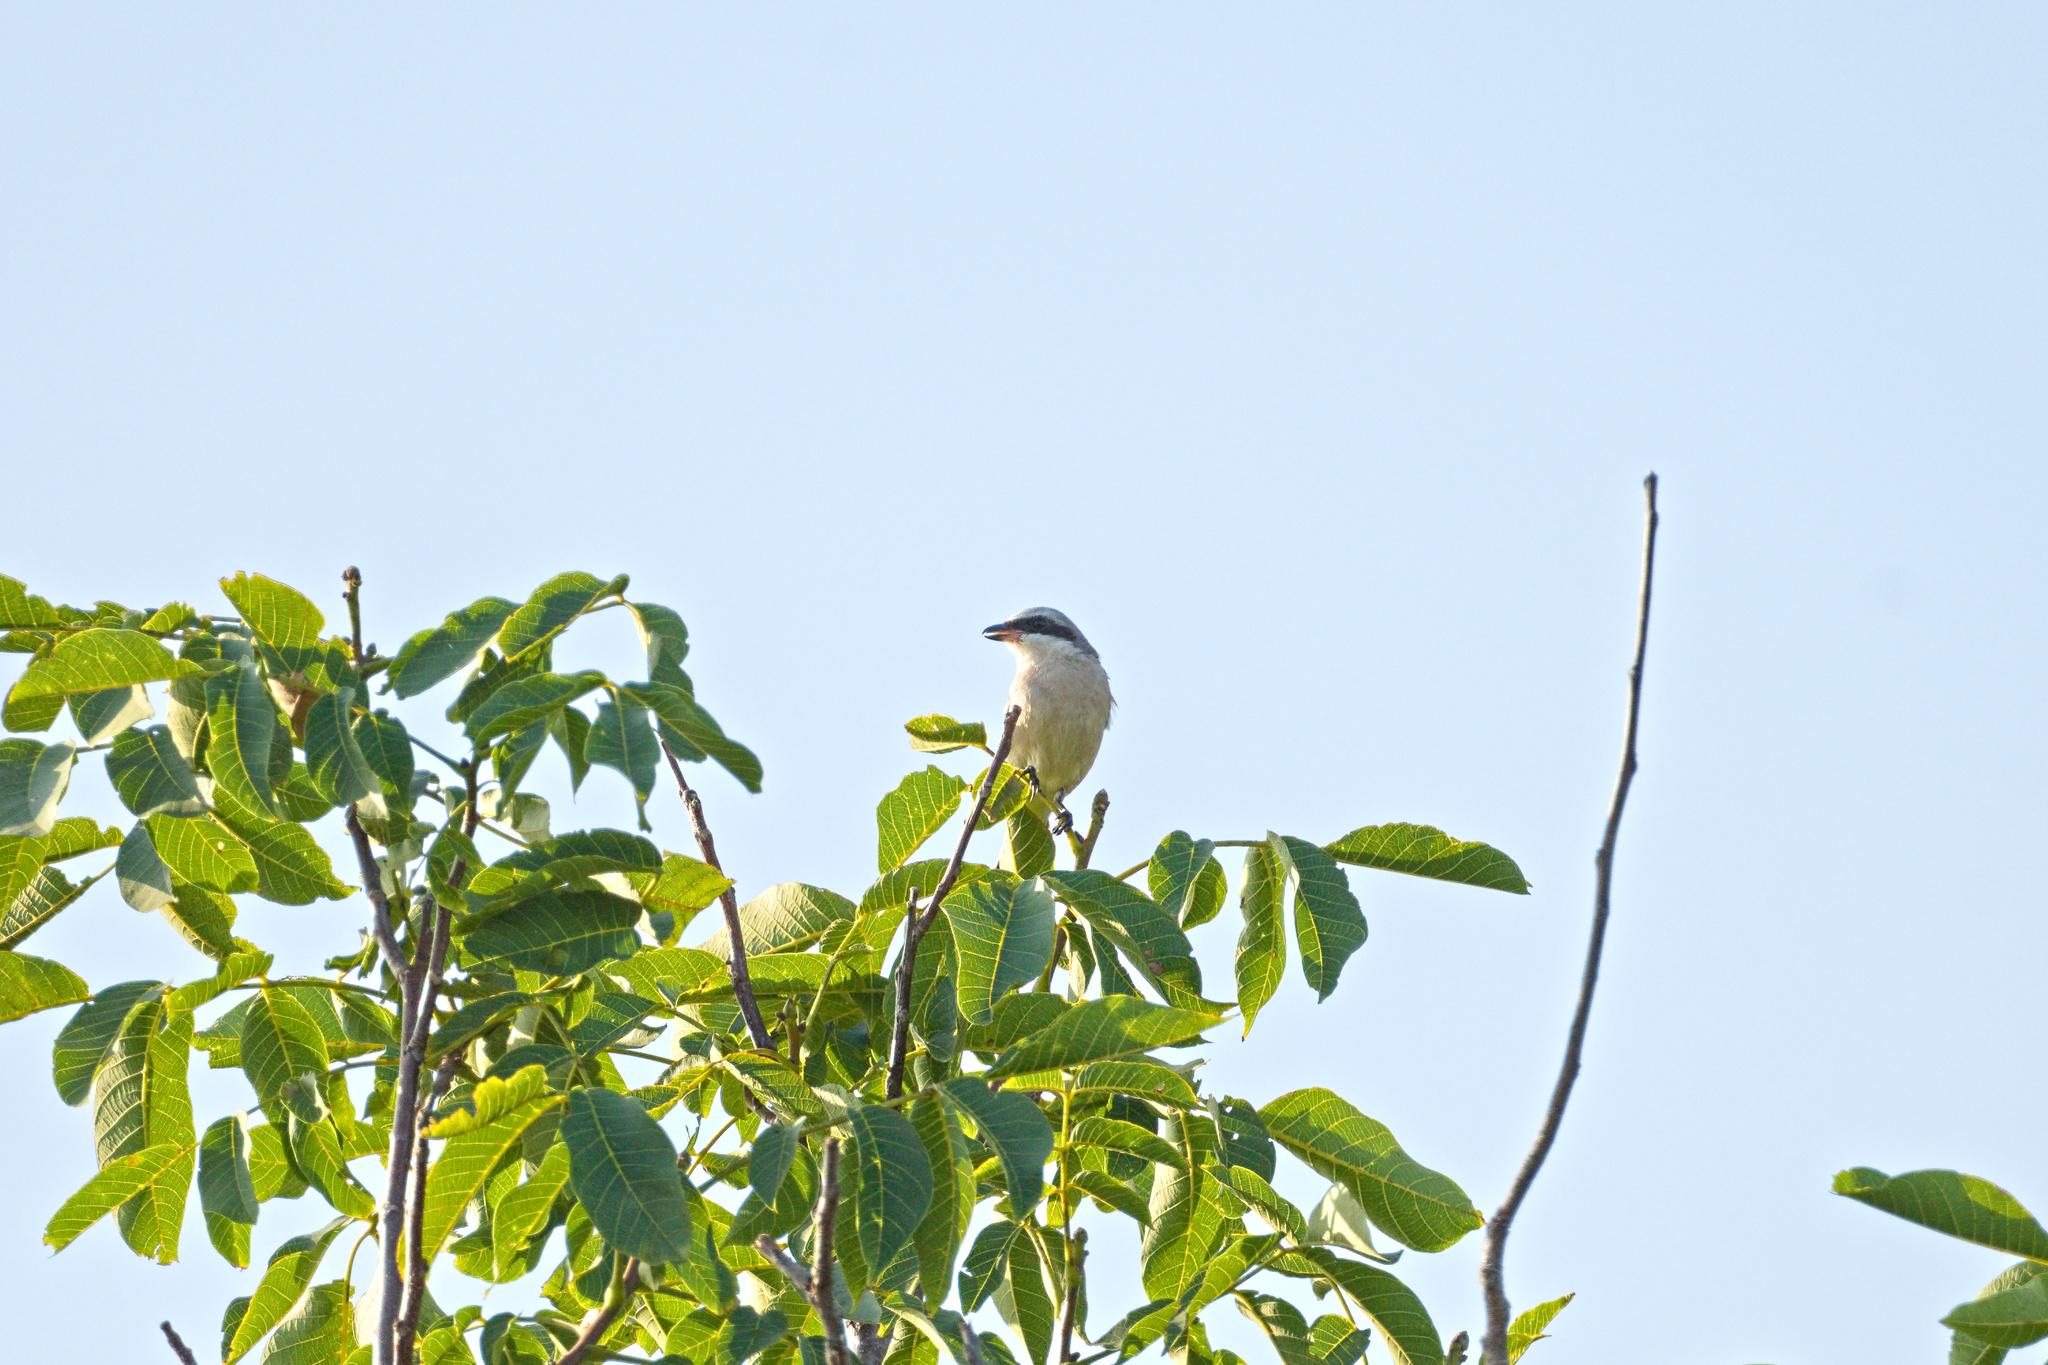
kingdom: Animalia
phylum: Chordata
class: Aves
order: Passeriformes
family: Laniidae
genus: Lanius
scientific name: Lanius collurio
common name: Red-backed shrike
